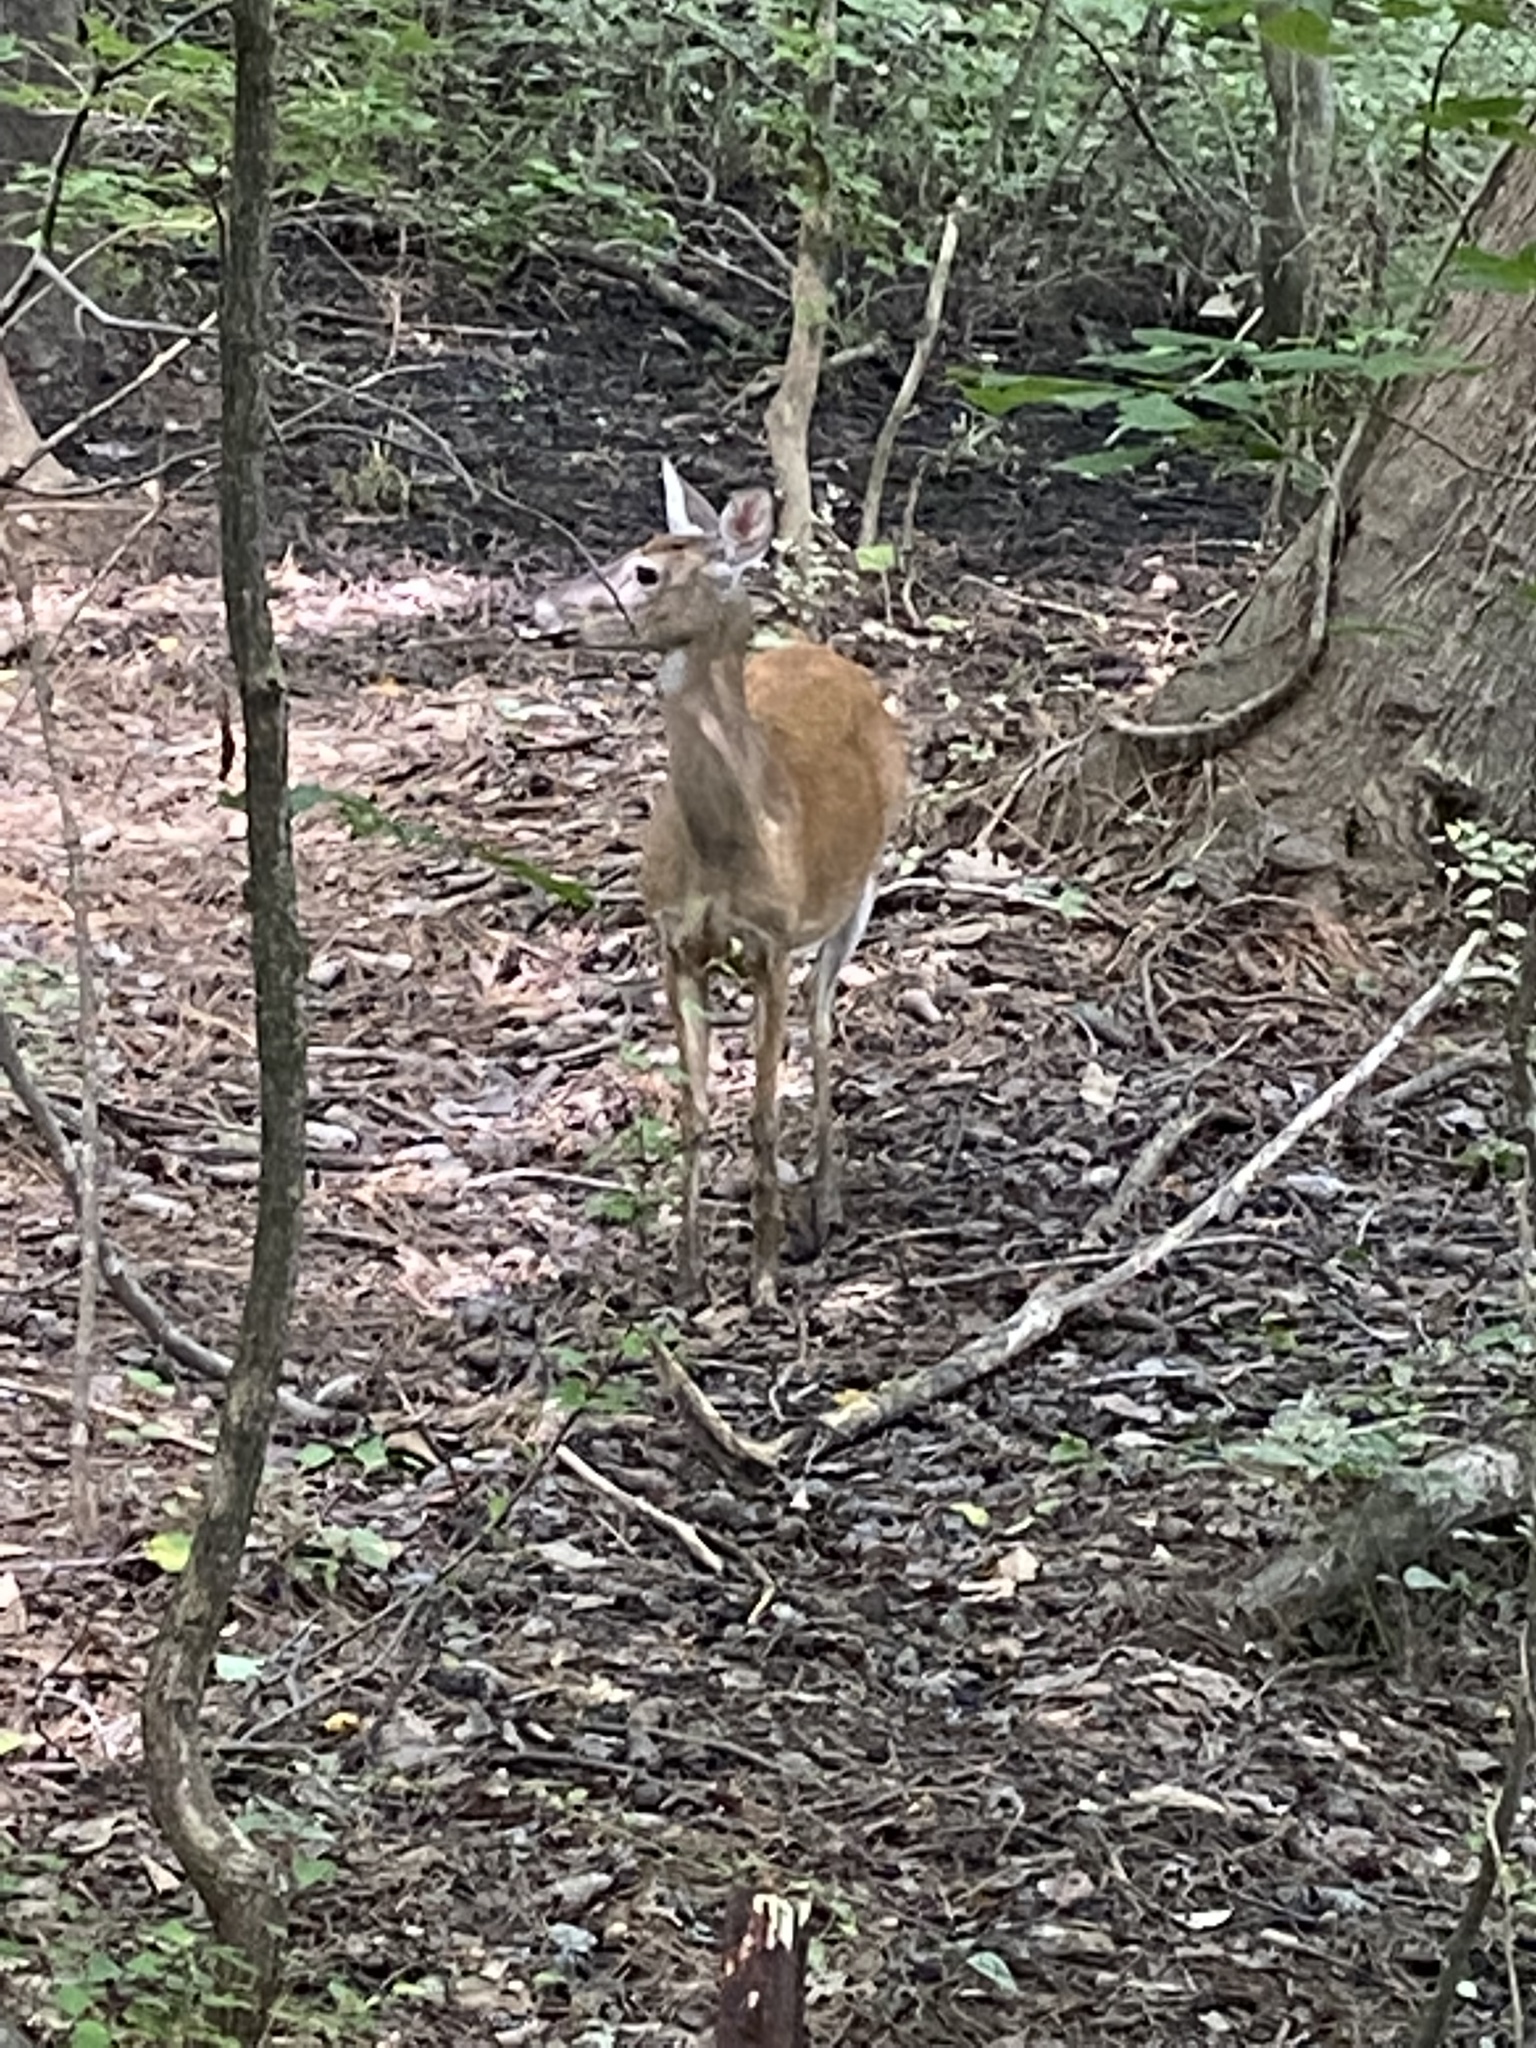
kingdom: Animalia
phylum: Chordata
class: Mammalia
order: Artiodactyla
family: Cervidae
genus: Odocoileus
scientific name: Odocoileus virginianus
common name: White-tailed deer
